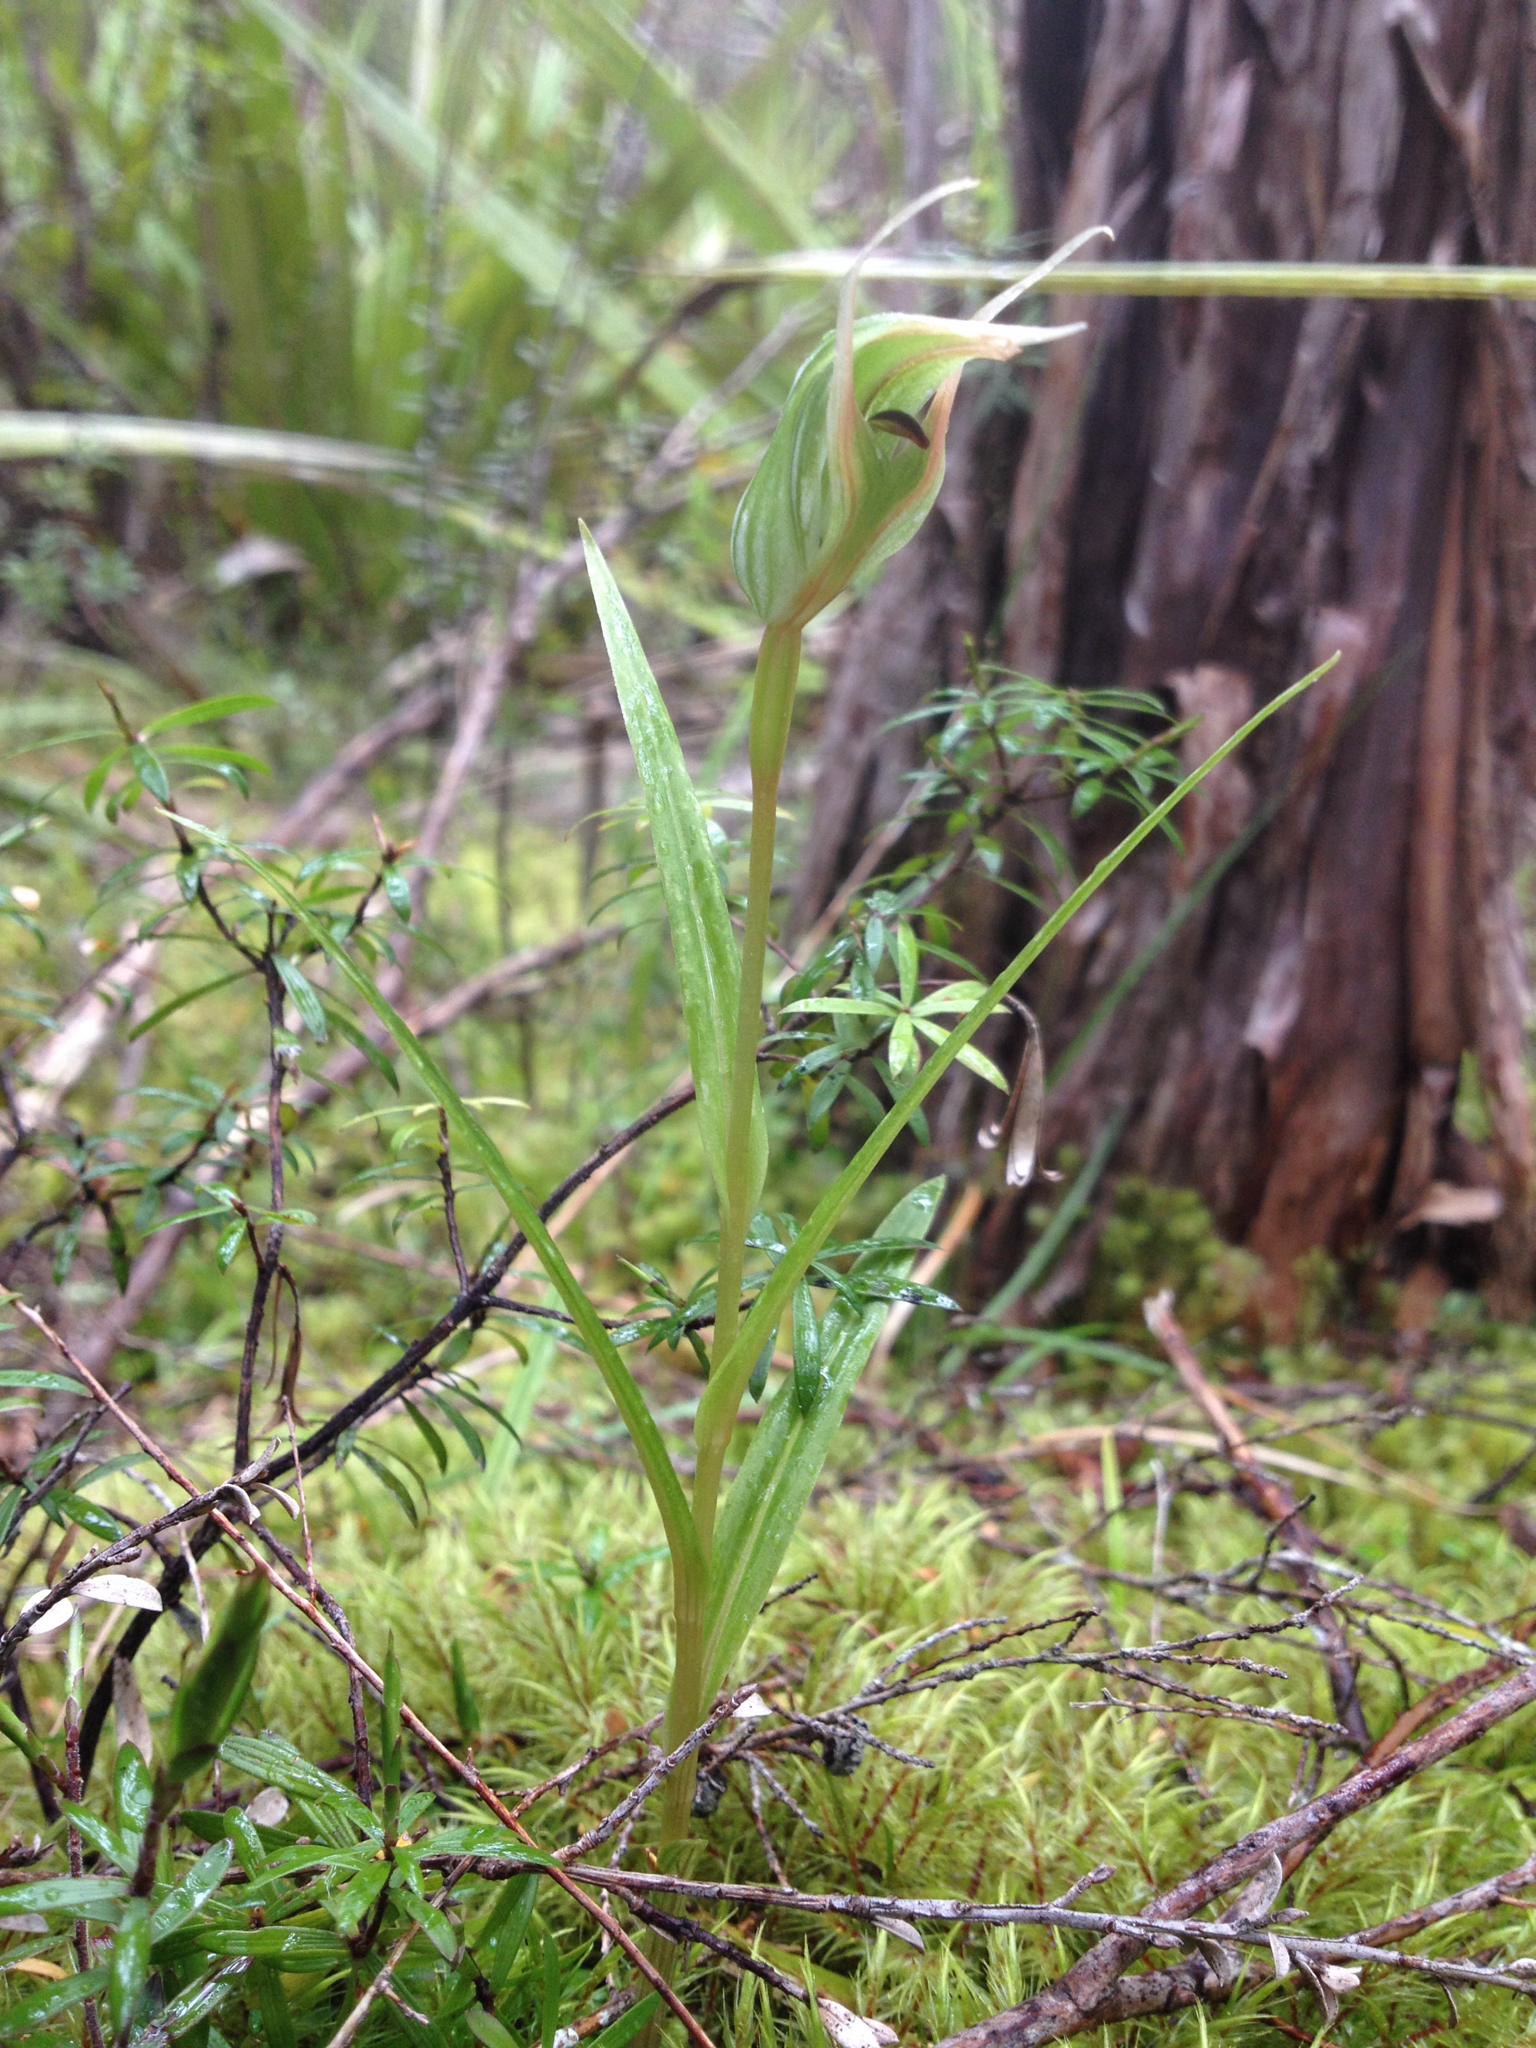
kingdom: Plantae
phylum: Tracheophyta
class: Liliopsida
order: Asparagales
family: Orchidaceae
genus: Pterostylis
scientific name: Pterostylis montana
